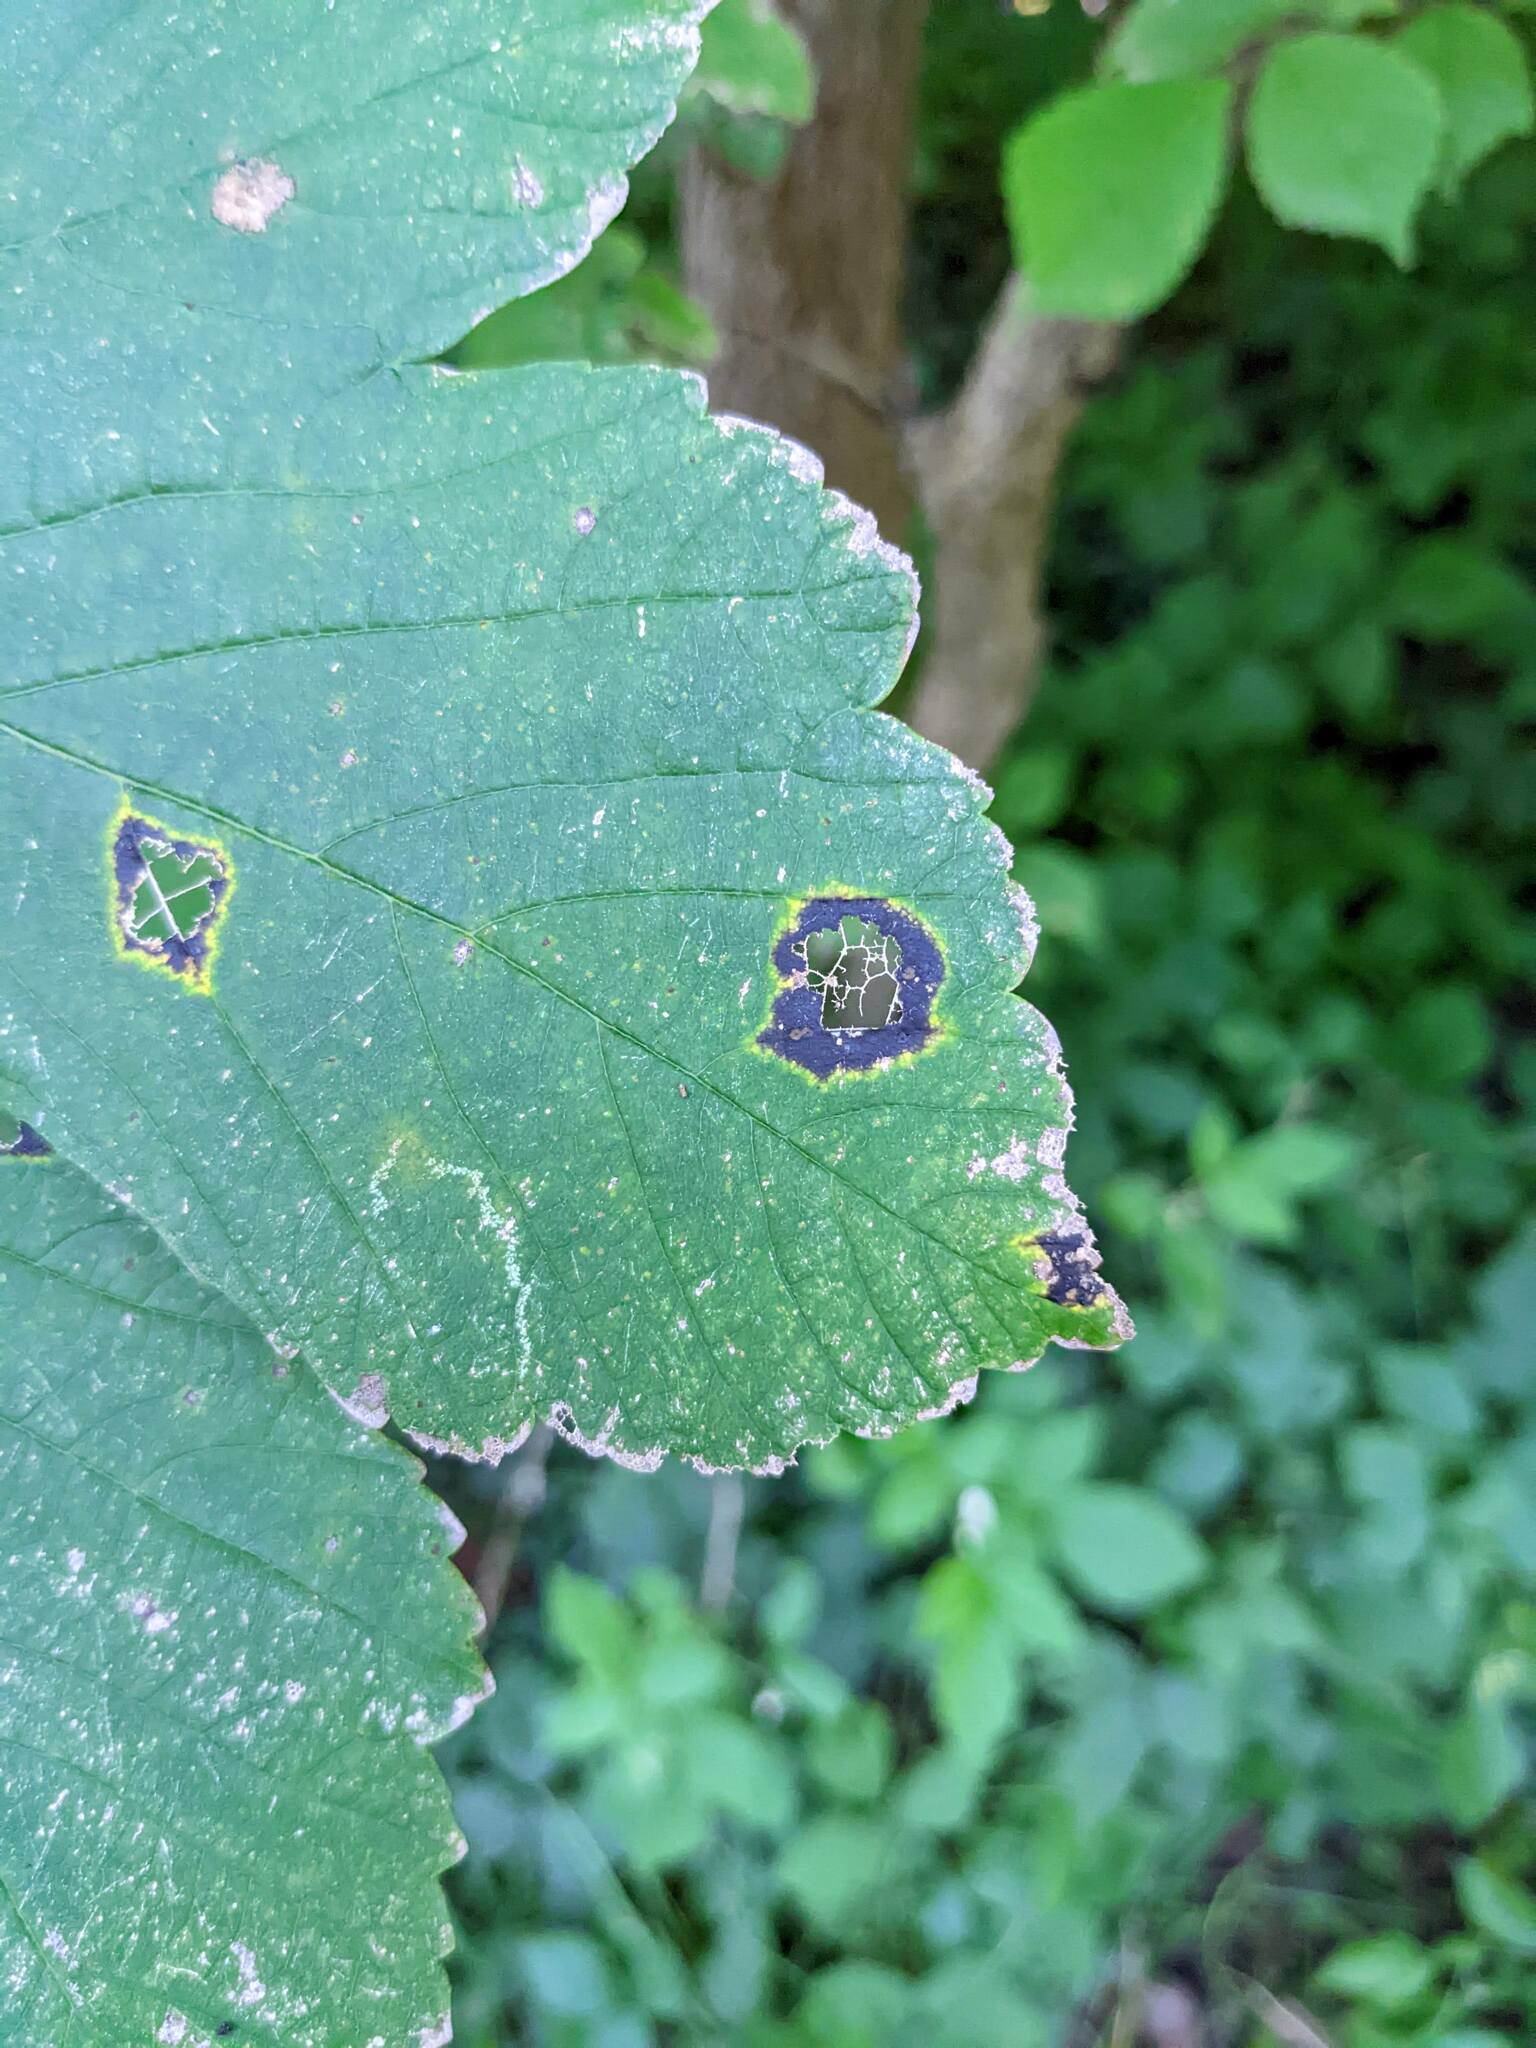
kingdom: Fungi
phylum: Ascomycota
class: Leotiomycetes
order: Rhytismatales
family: Rhytismataceae
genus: Rhytisma
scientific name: Rhytisma acerinum
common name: European tar spot
